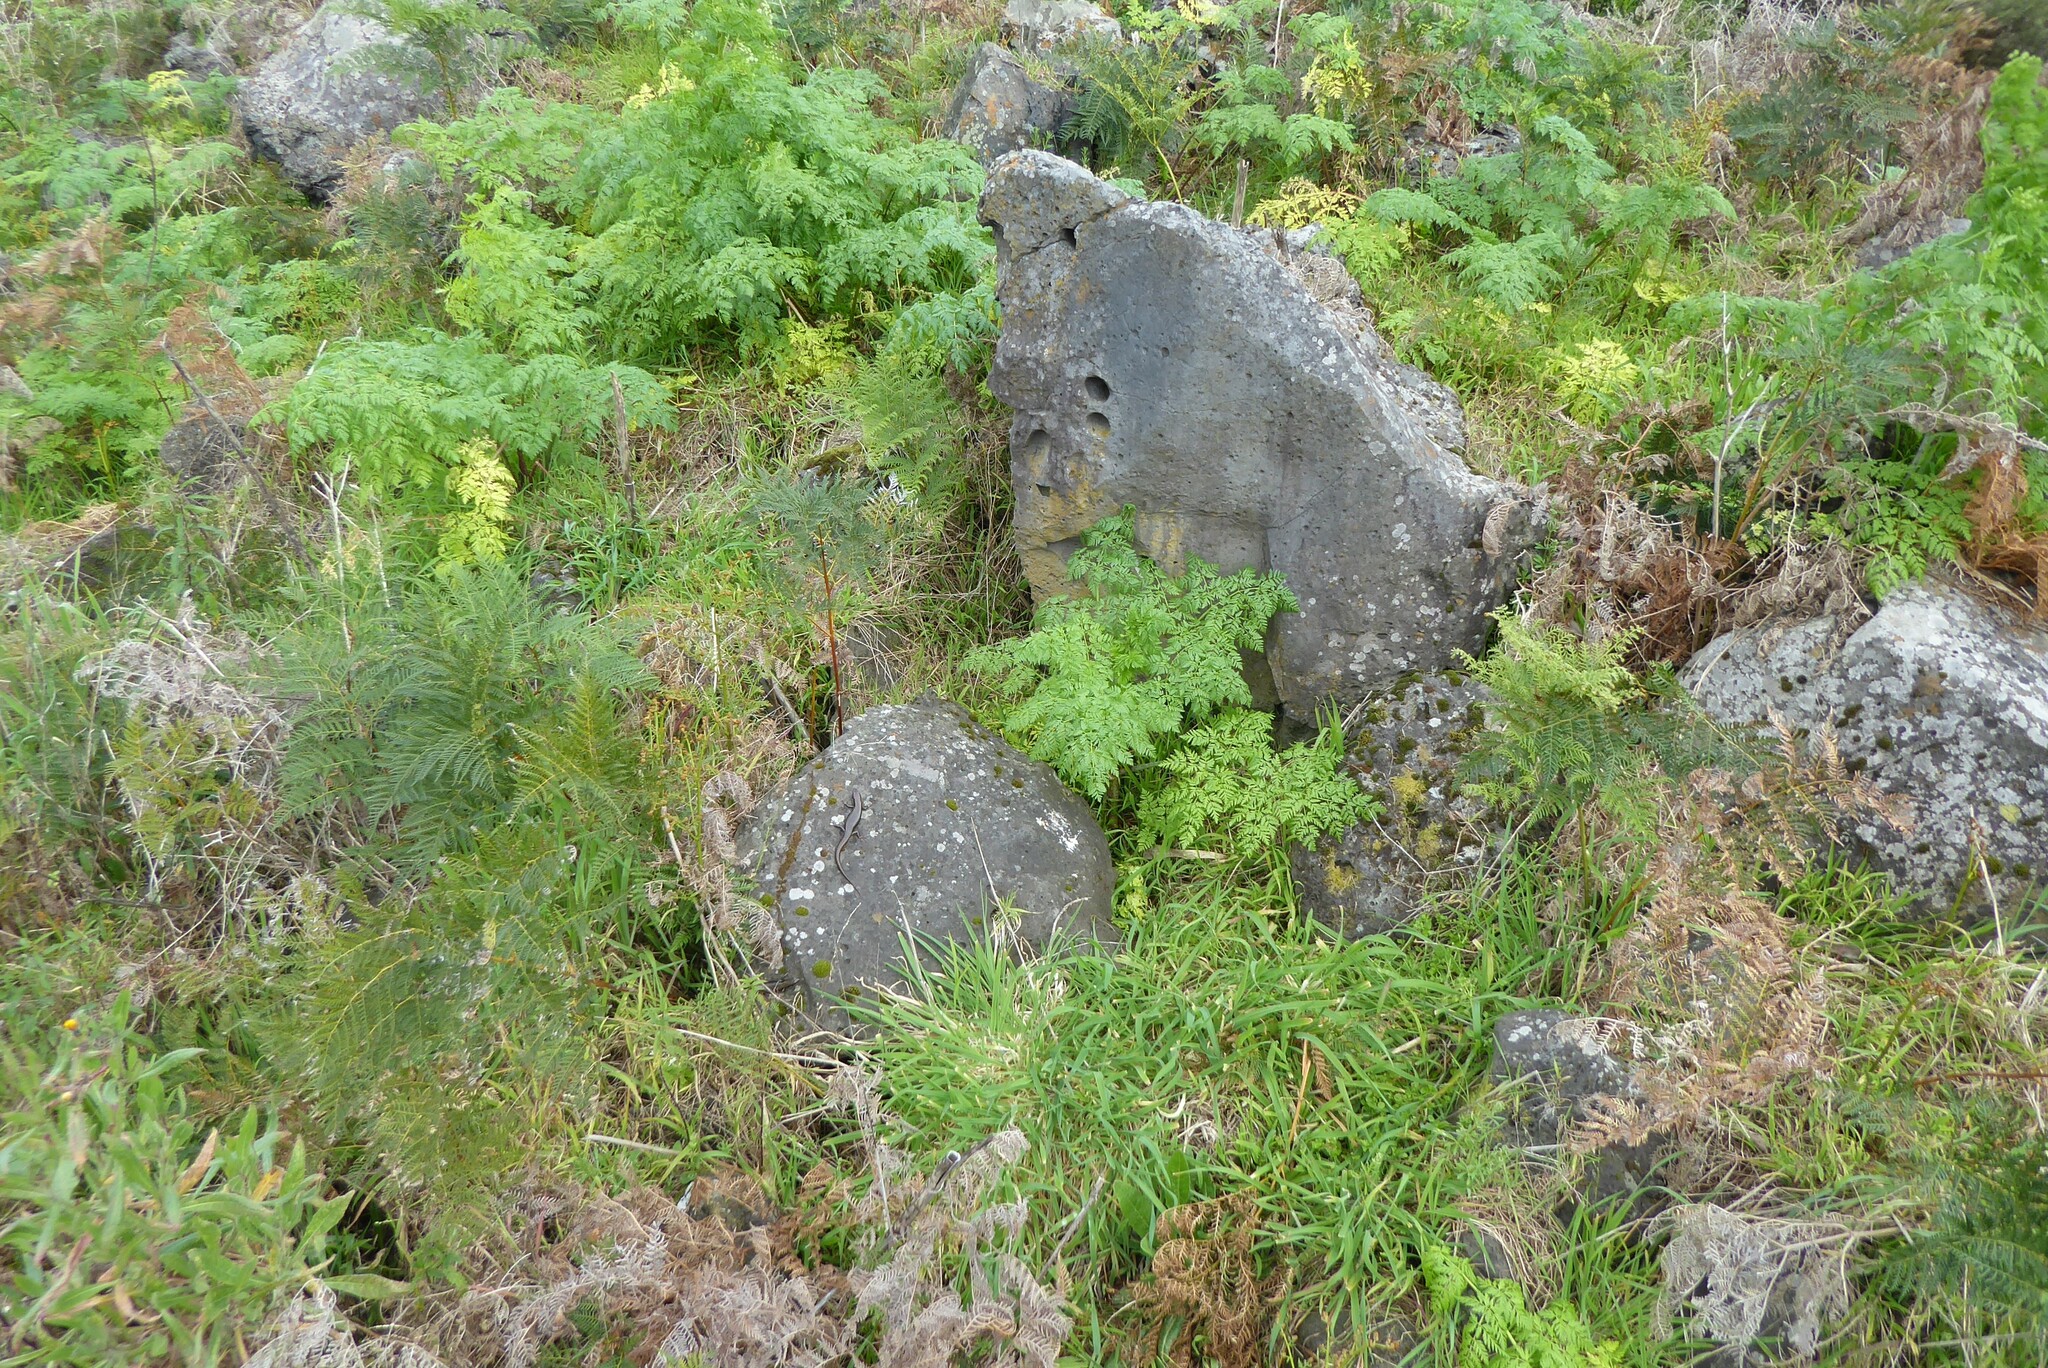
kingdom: Animalia
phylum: Chordata
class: Squamata
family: Scincidae
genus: Eulamprus
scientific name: Eulamprus tympanum
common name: Cool-temperate water-skink
